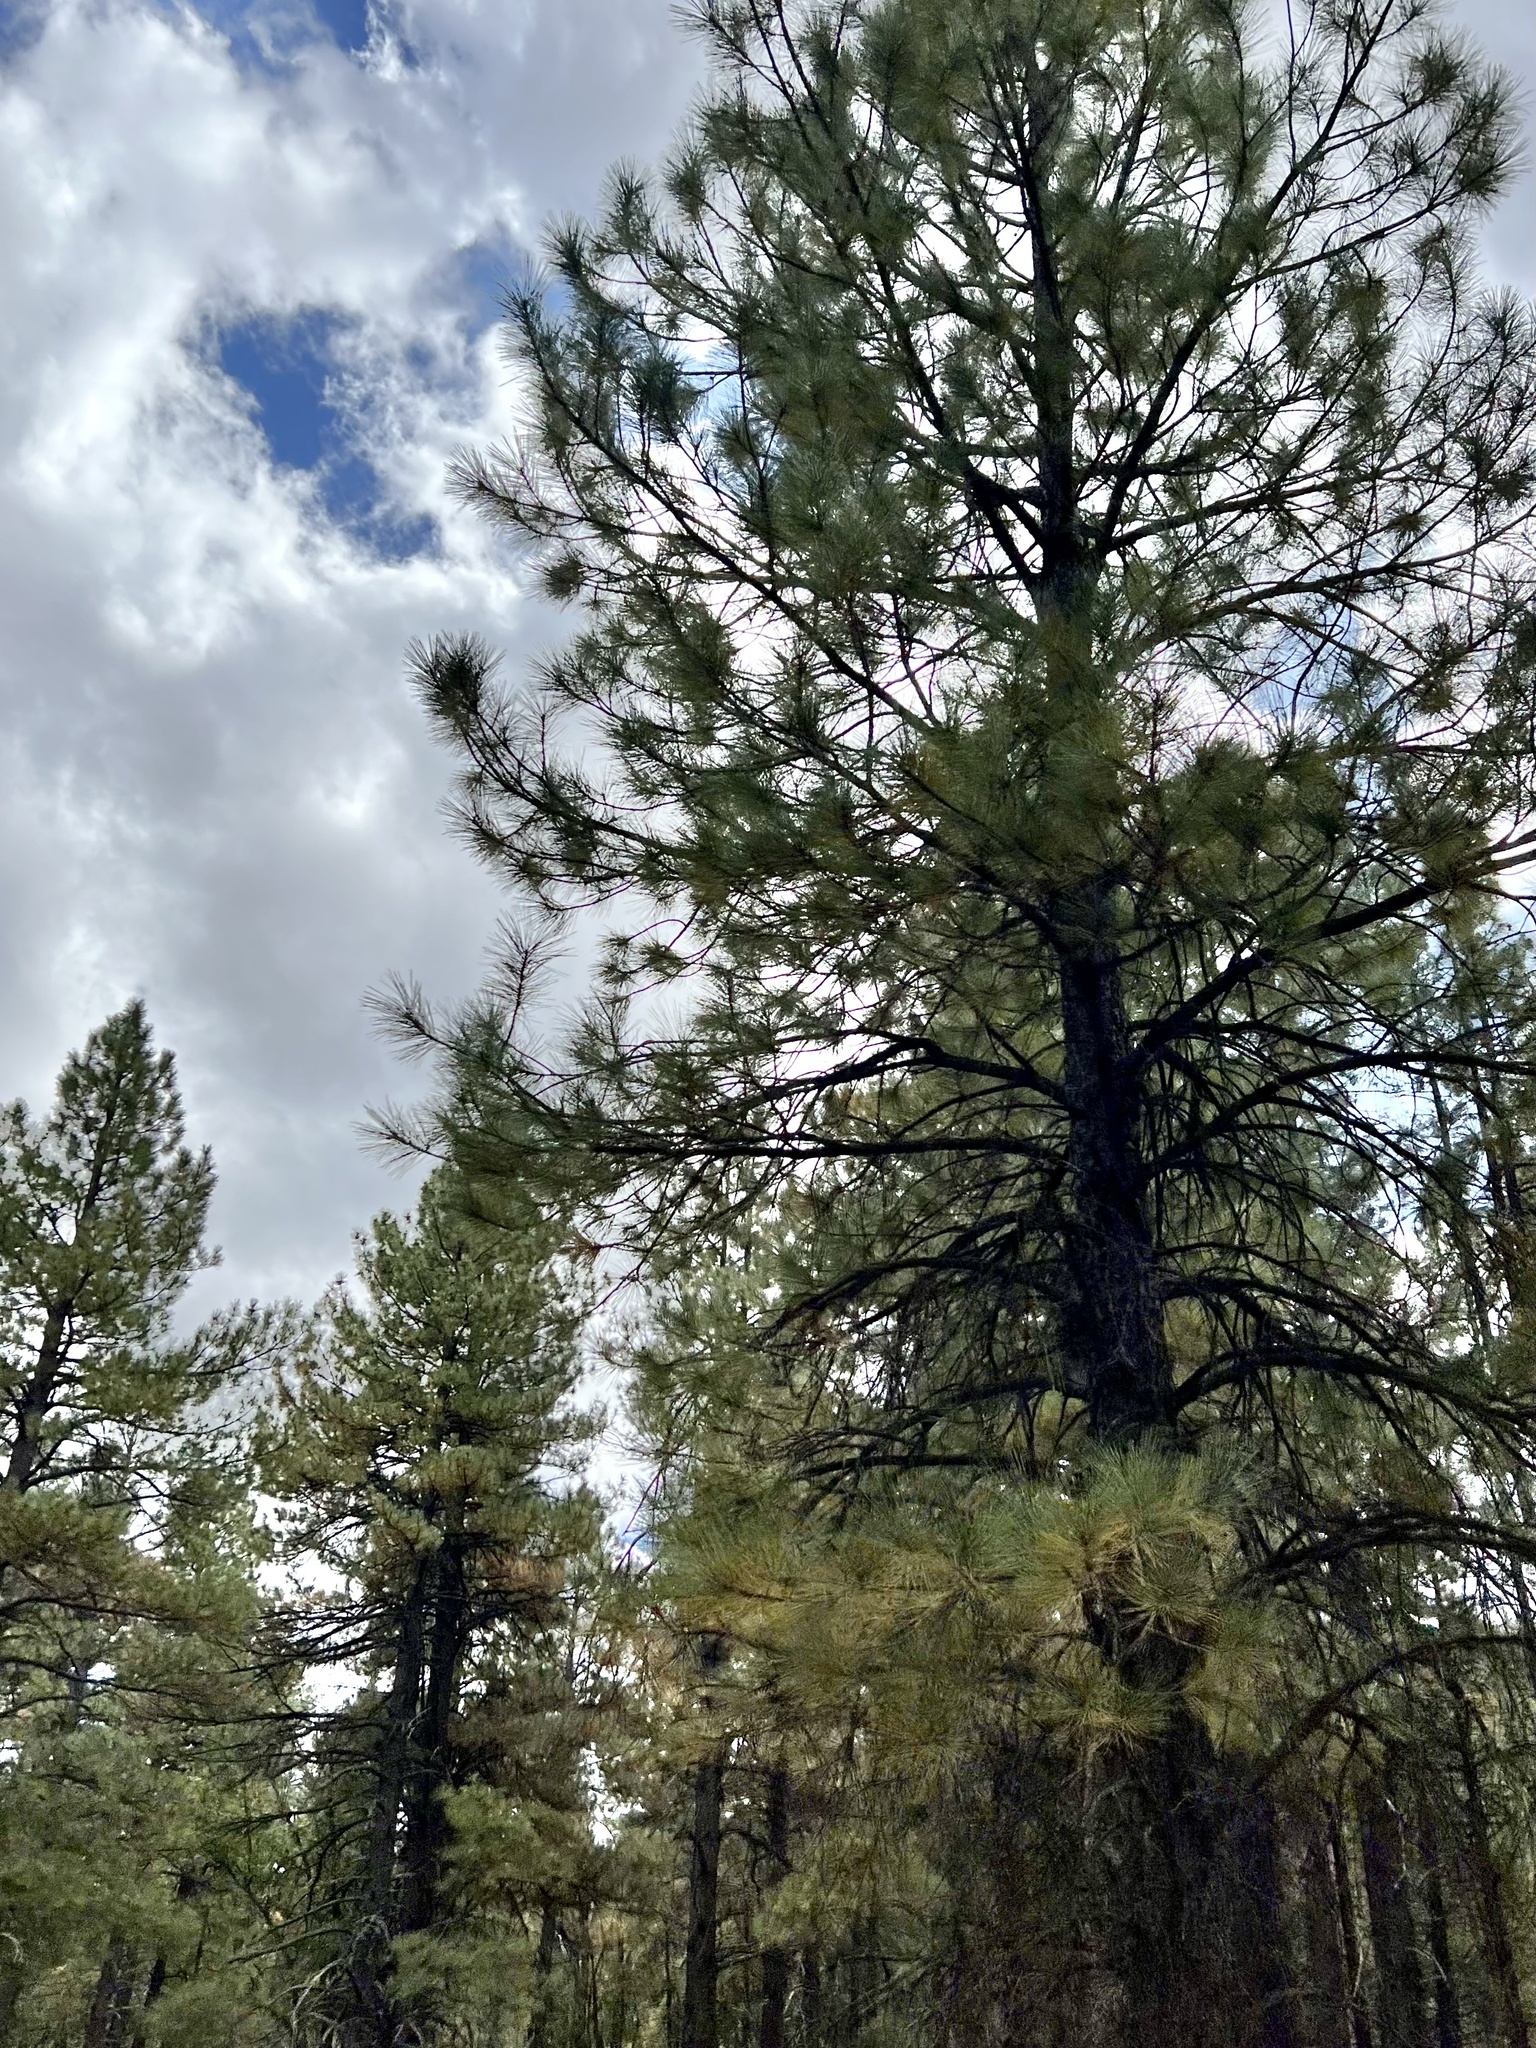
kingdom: Plantae
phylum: Tracheophyta
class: Pinopsida
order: Pinales
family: Pinaceae
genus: Pinus
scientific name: Pinus ponderosa
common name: Western yellow-pine
